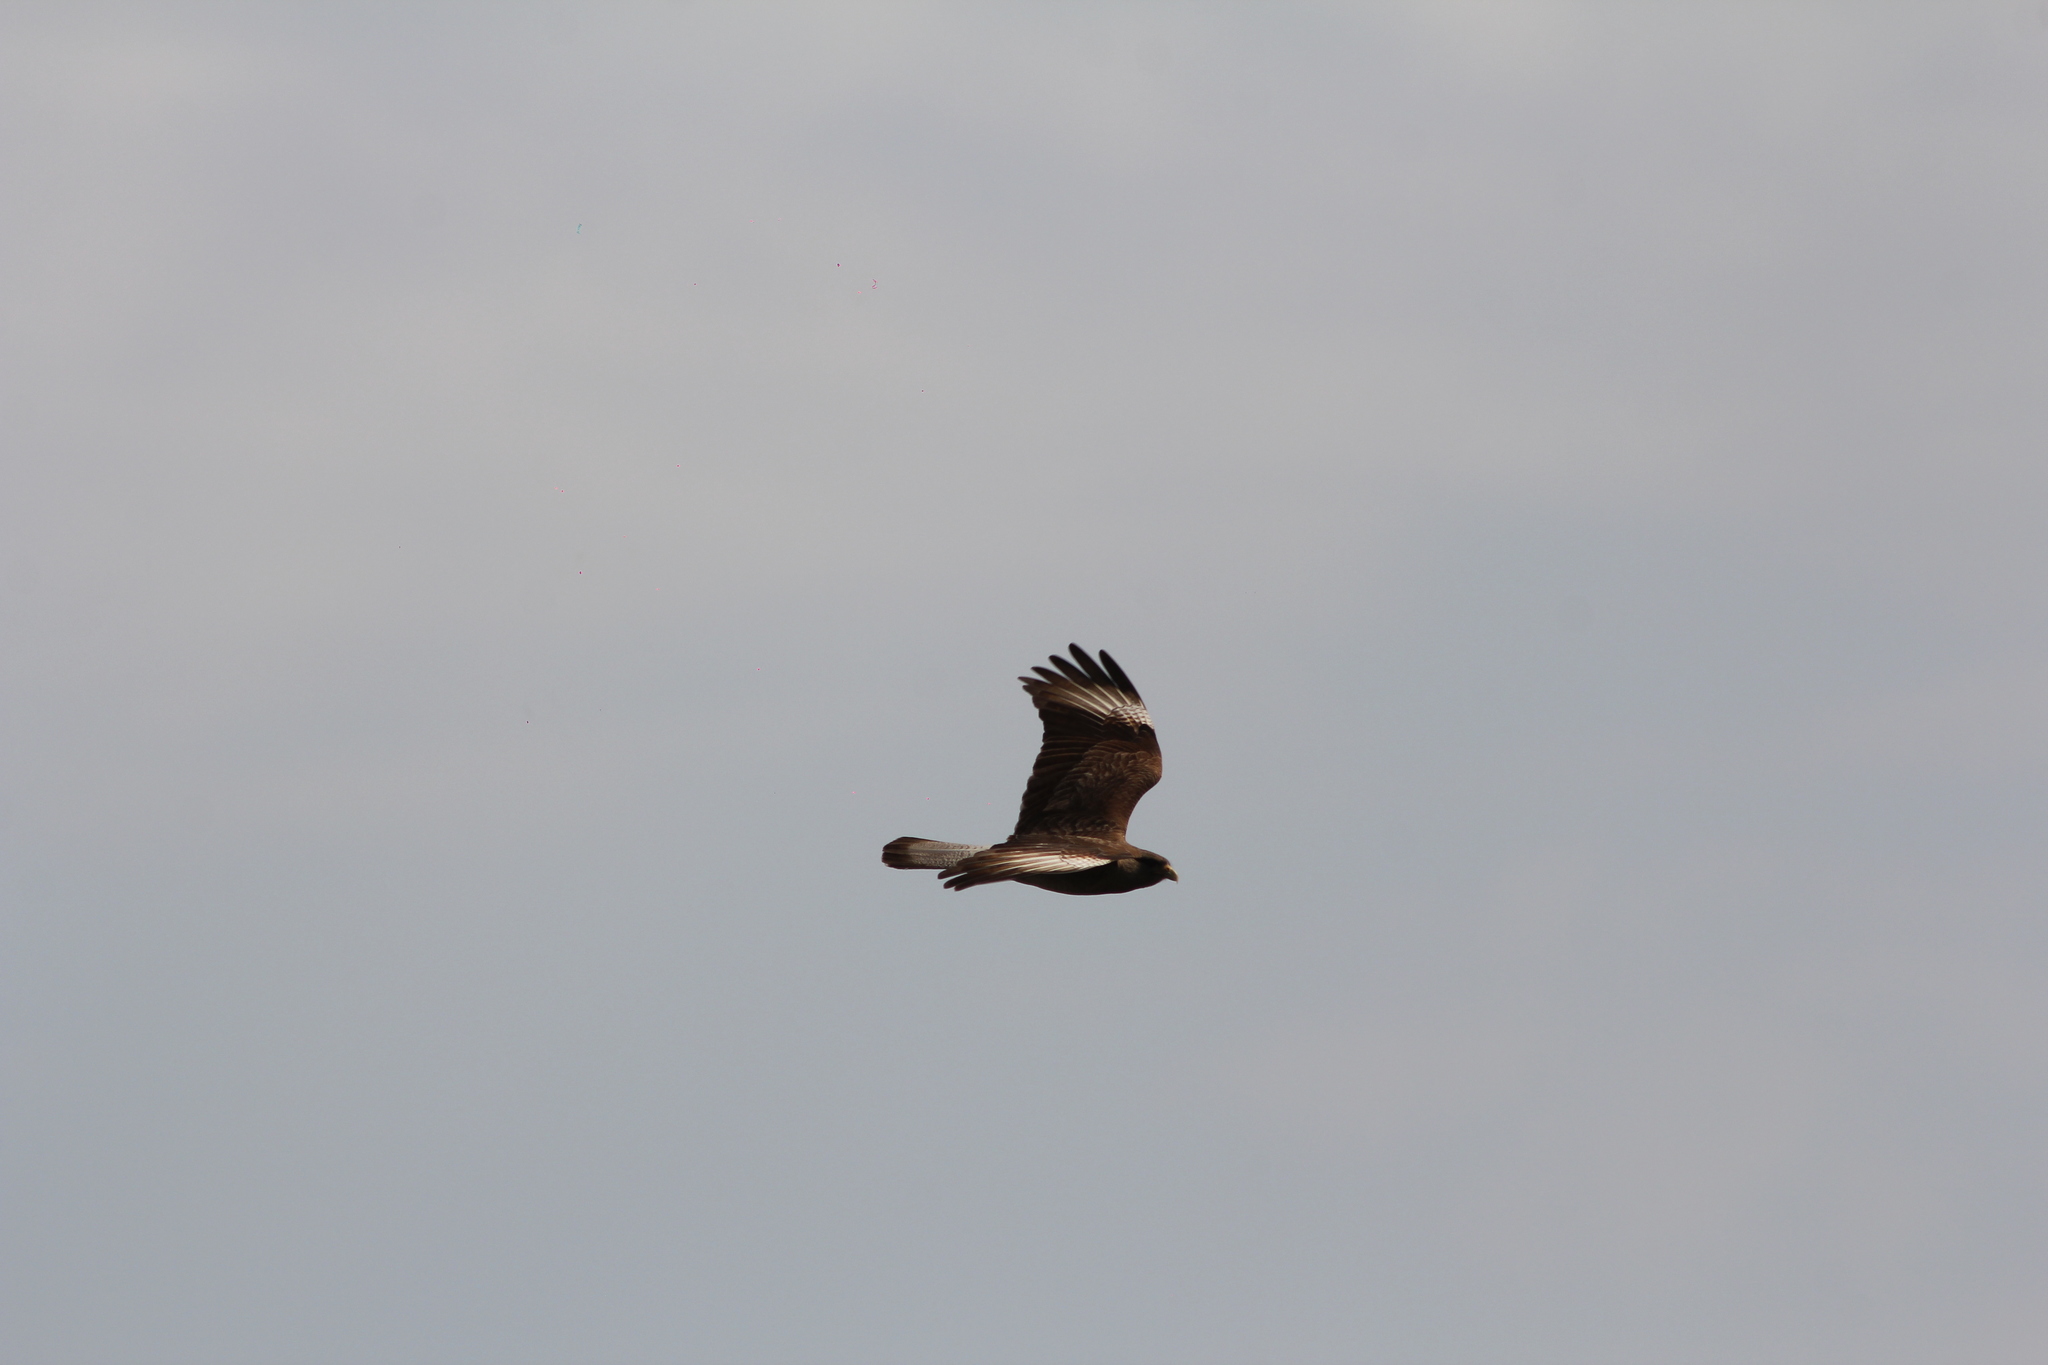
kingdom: Animalia
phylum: Chordata
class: Aves
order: Falconiformes
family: Falconidae
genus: Daptrius
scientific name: Daptrius
